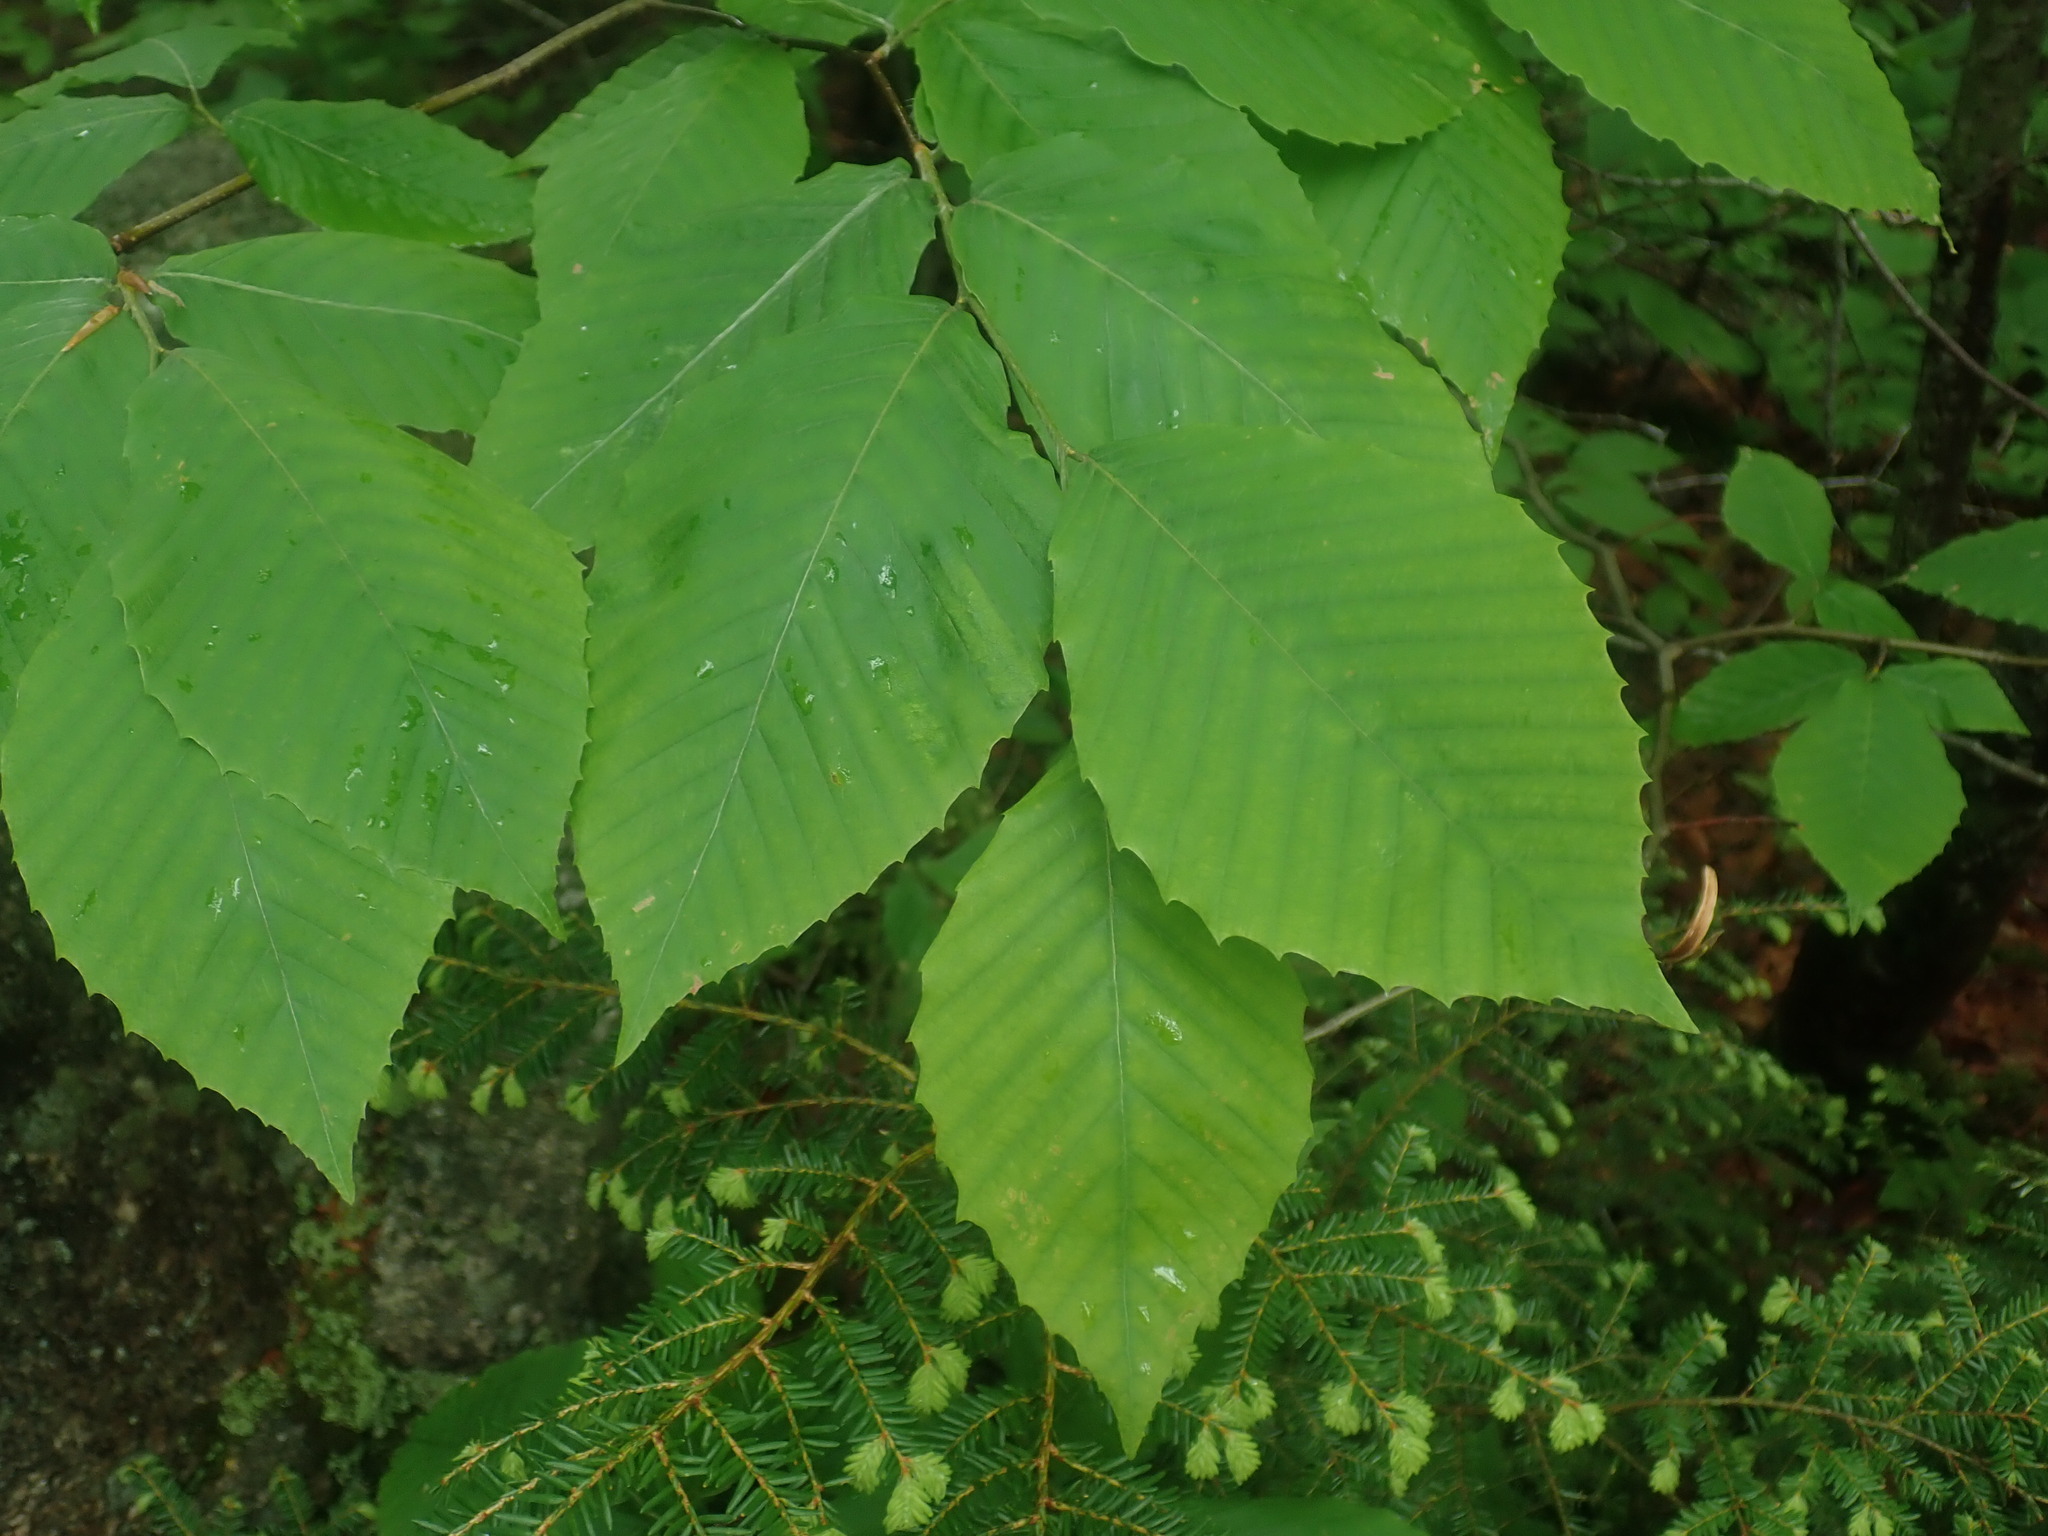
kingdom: Plantae
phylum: Tracheophyta
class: Magnoliopsida
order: Fagales
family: Fagaceae
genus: Fagus
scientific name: Fagus grandifolia
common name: American beech
